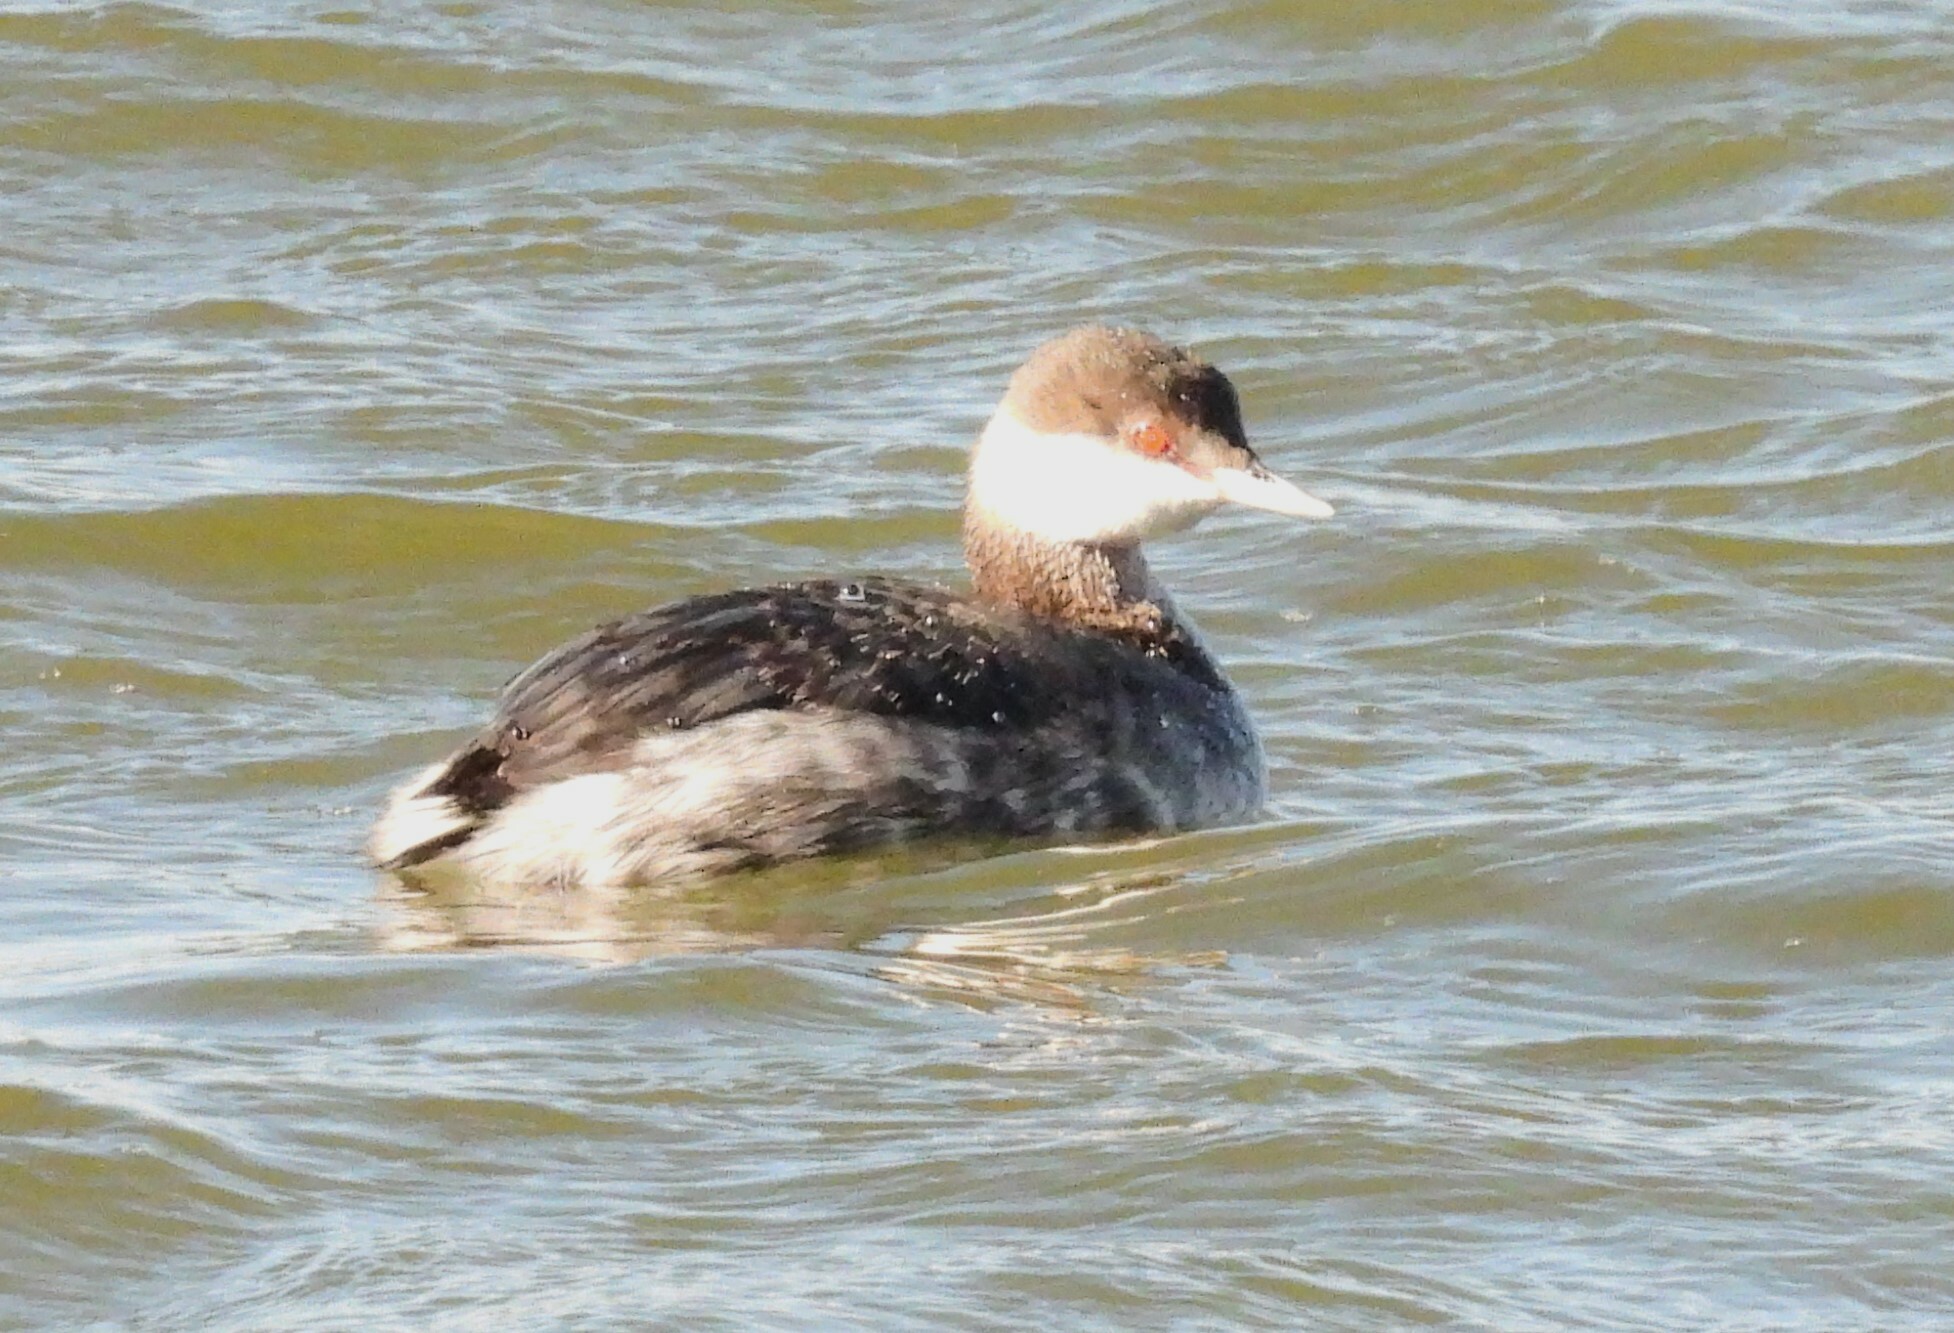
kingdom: Animalia
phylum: Chordata
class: Aves
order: Podicipediformes
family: Podicipedidae
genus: Podiceps
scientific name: Podiceps auritus
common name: Horned grebe
